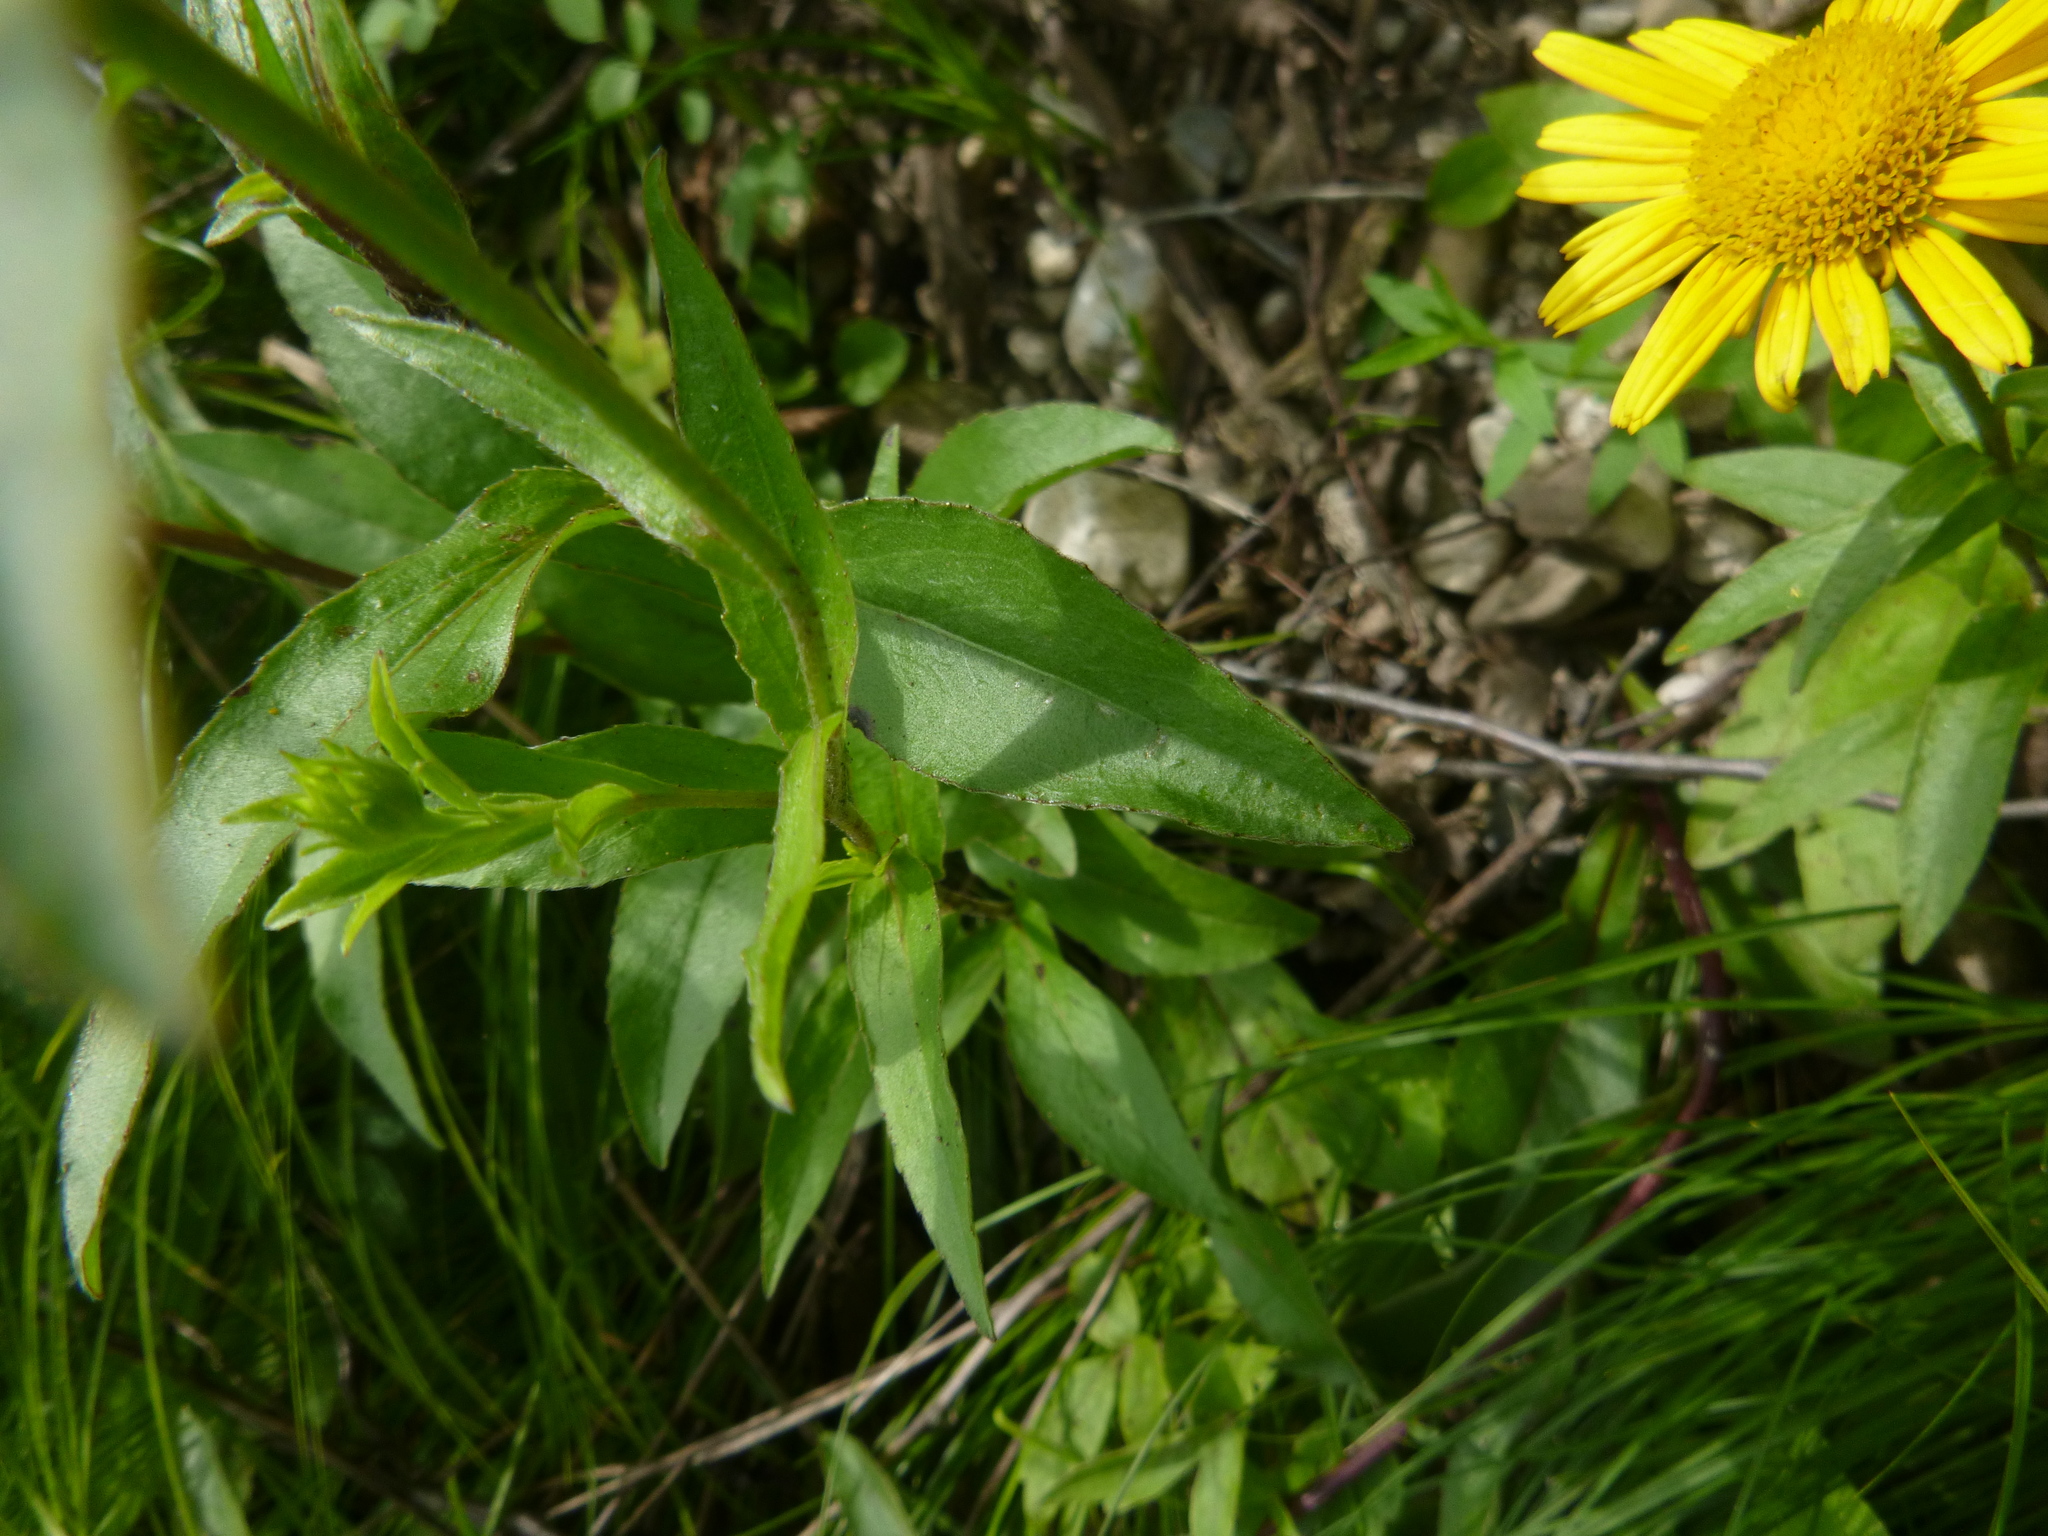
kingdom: Plantae
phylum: Tracheophyta
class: Magnoliopsida
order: Asterales
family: Asteraceae
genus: Buphthalmum
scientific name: Buphthalmum salicifolium
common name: Willow-leaved yellow-oxeye
